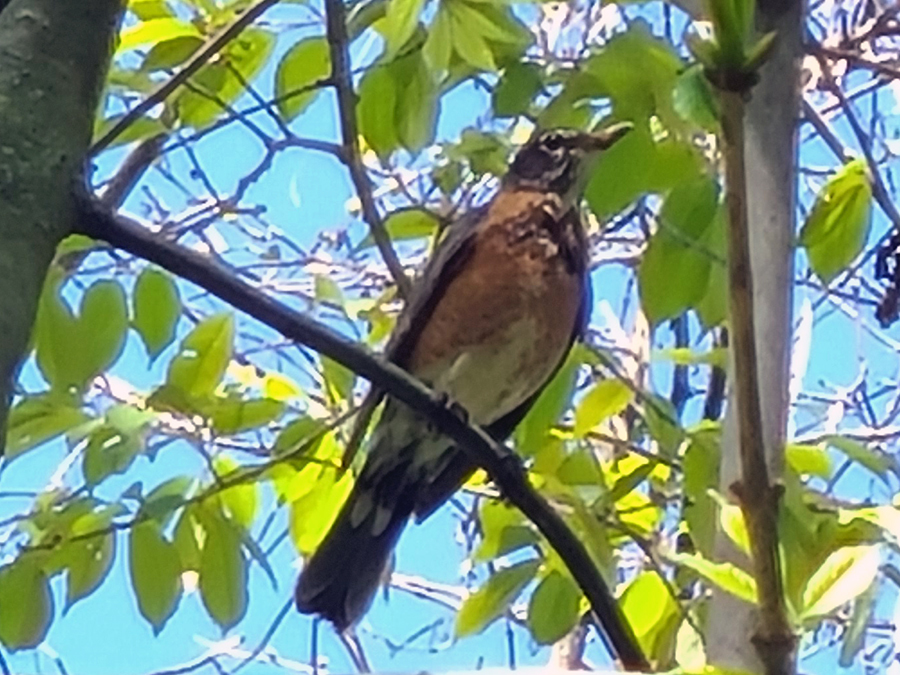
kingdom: Animalia
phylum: Chordata
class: Aves
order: Passeriformes
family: Turdidae
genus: Turdus
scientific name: Turdus migratorius
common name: American robin
